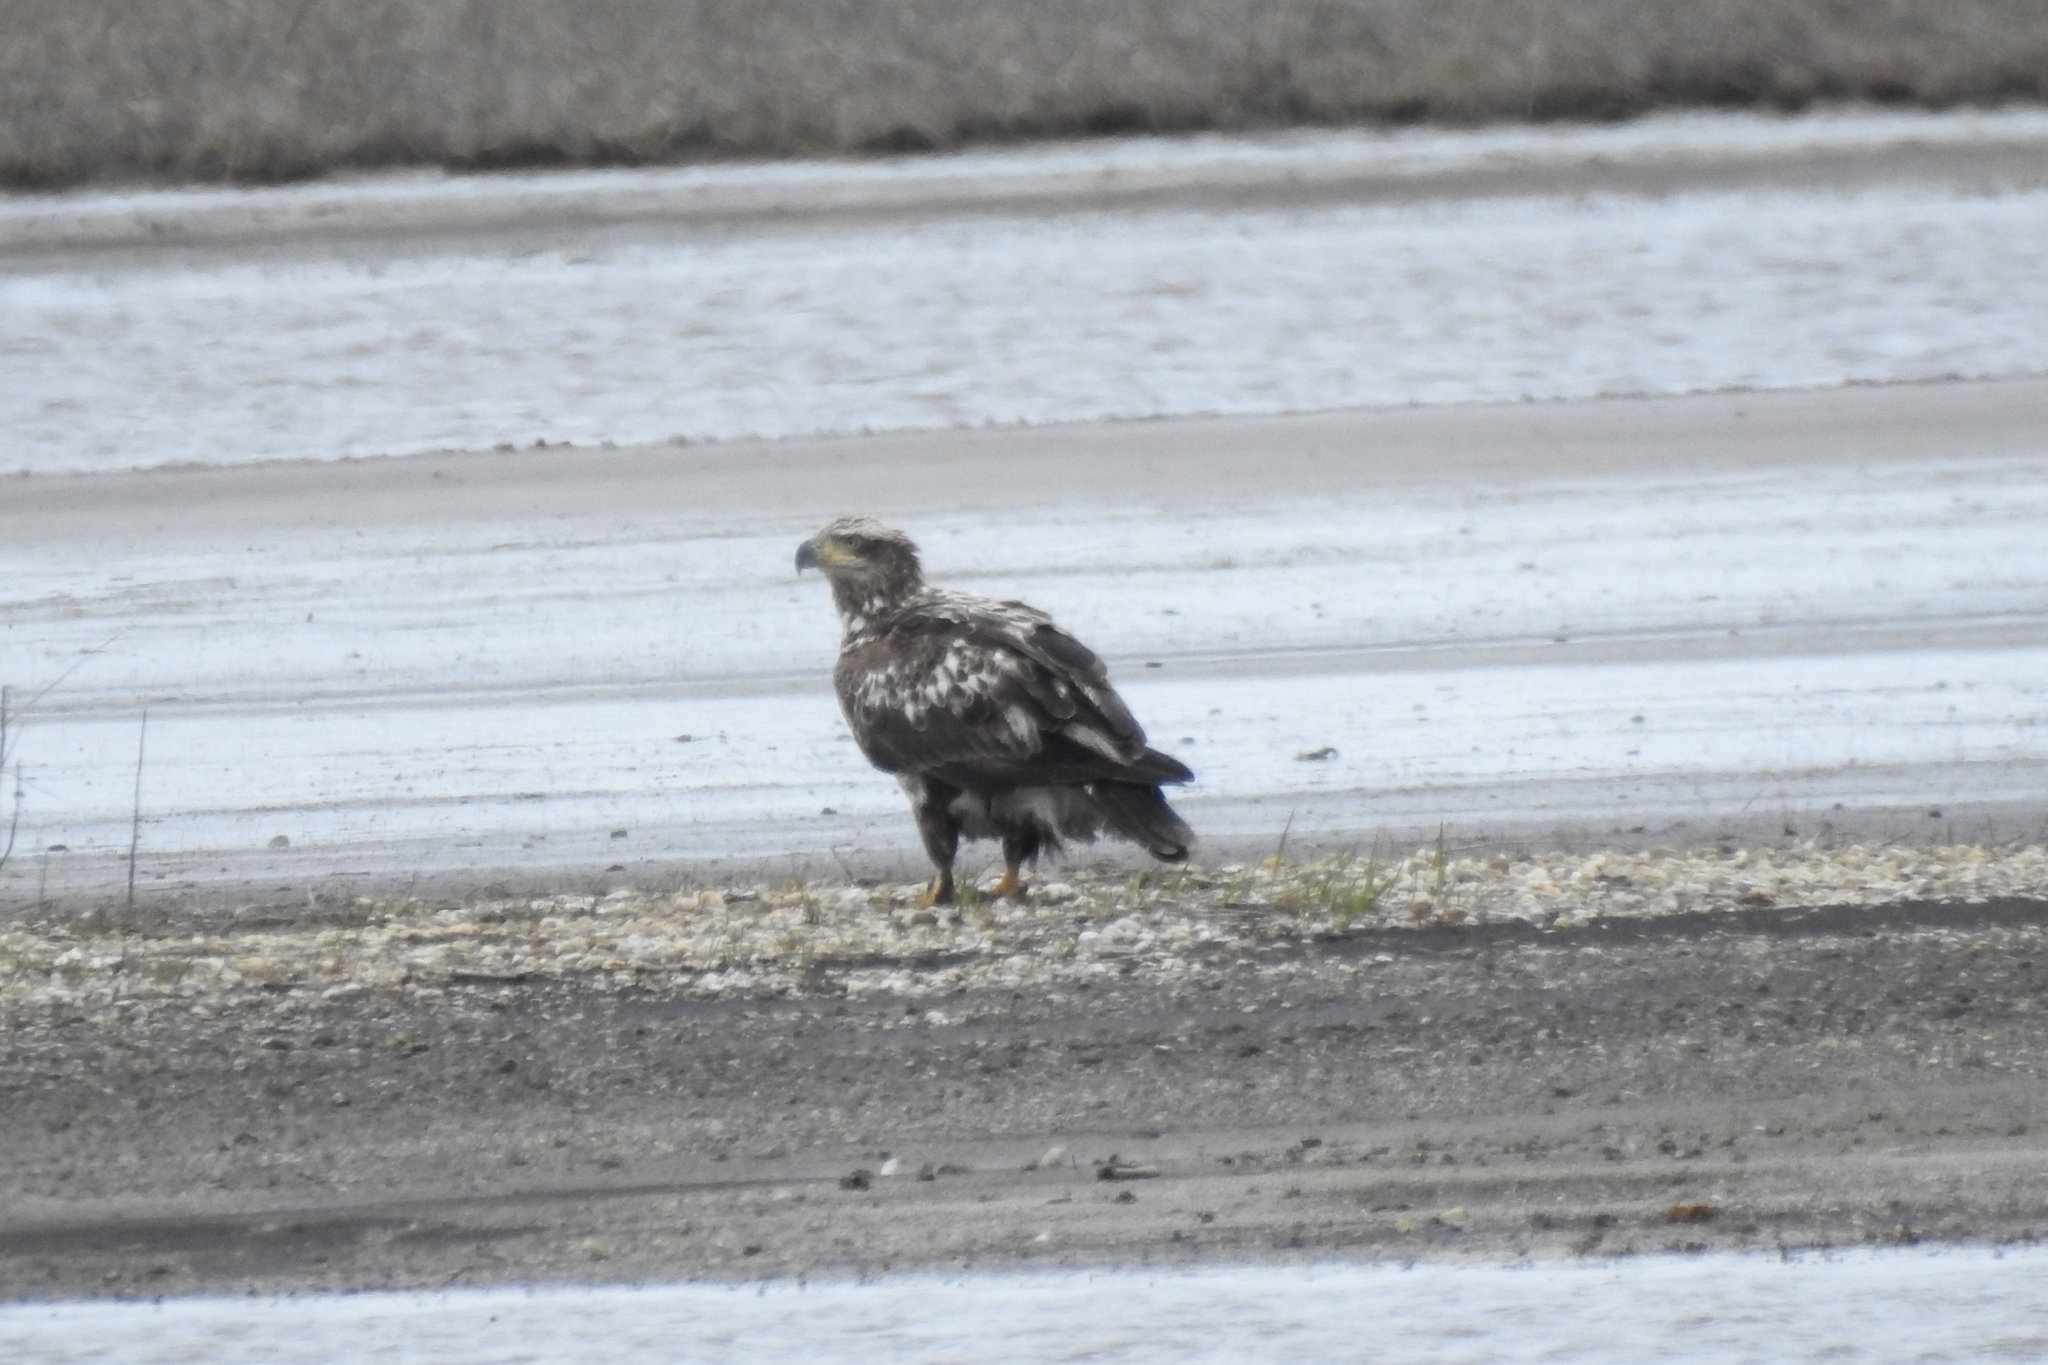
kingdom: Animalia
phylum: Chordata
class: Aves
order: Accipitriformes
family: Accipitridae
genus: Haliaeetus
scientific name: Haliaeetus leucocephalus
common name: Bald eagle
